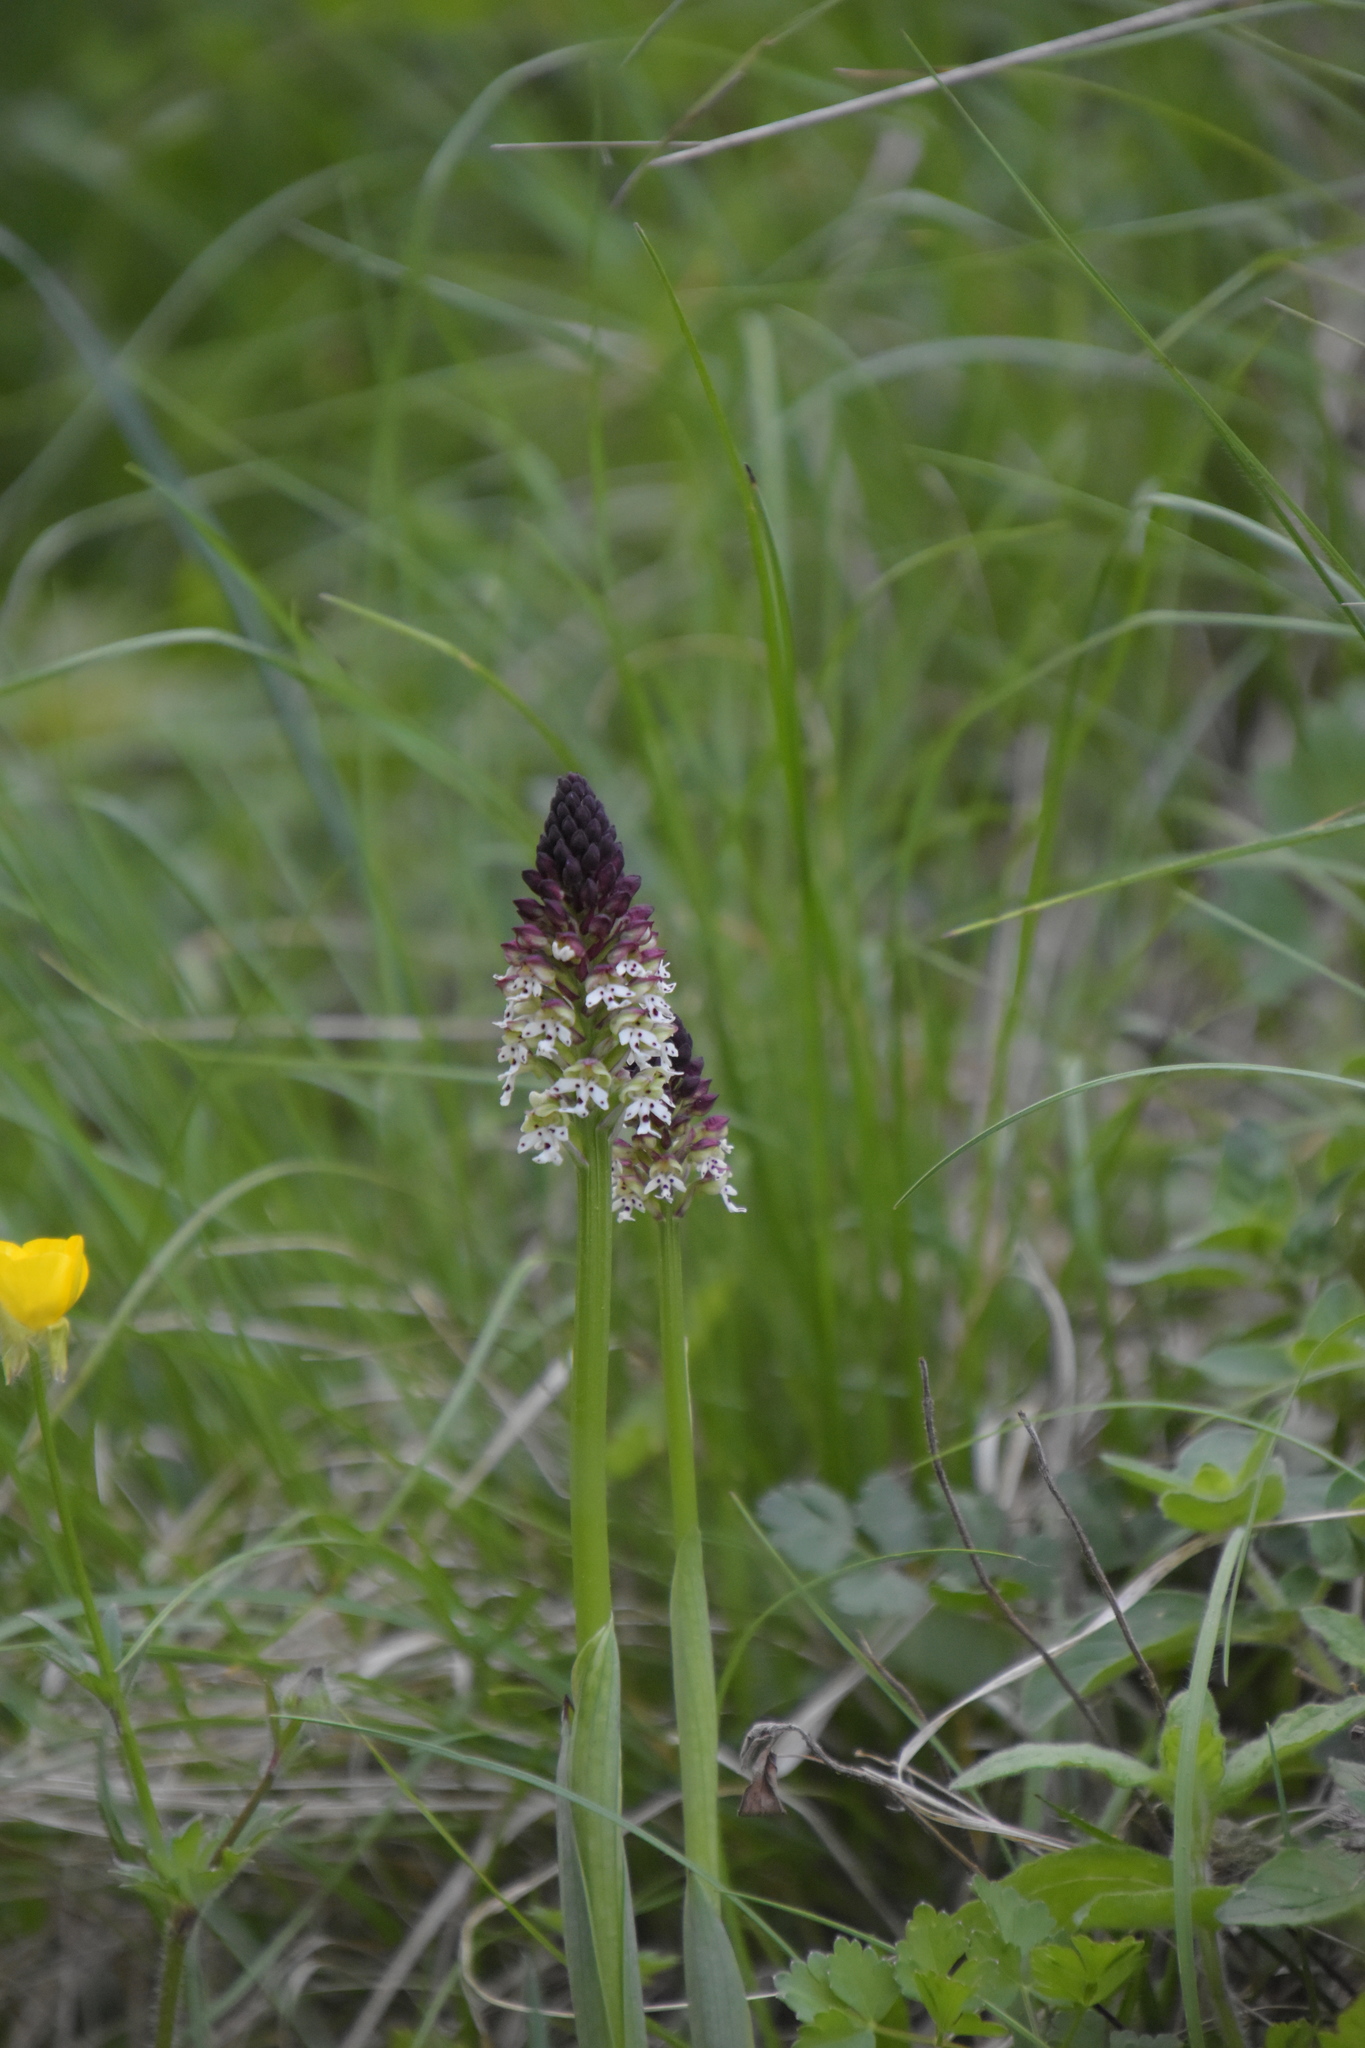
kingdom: Plantae
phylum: Tracheophyta
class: Liliopsida
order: Asparagales
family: Orchidaceae
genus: Neotinea
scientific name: Neotinea ustulata
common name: Burnt orchid
